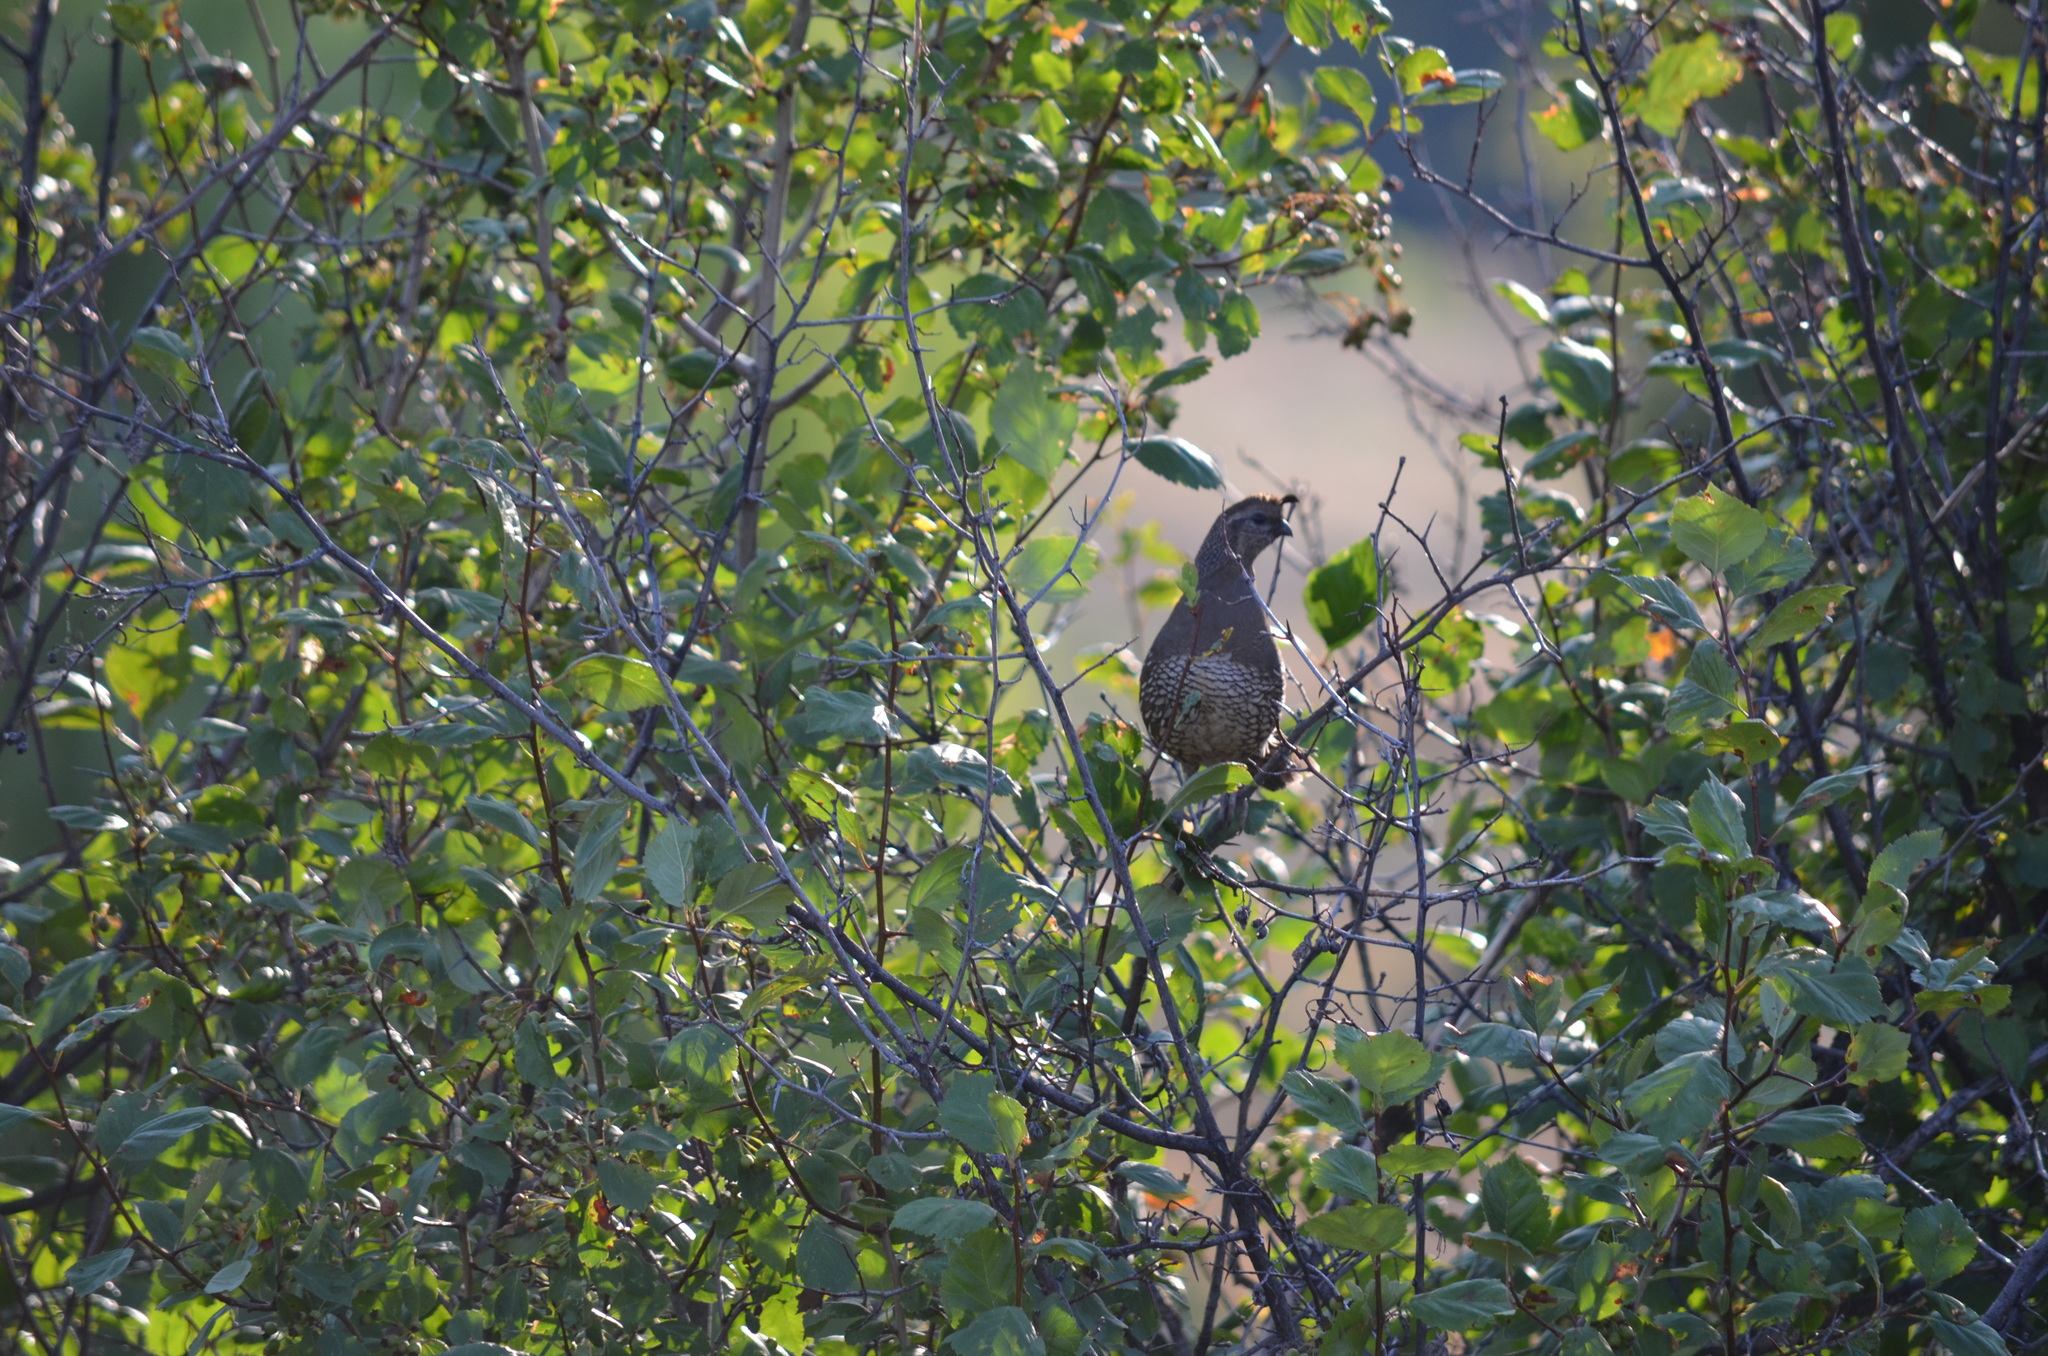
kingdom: Animalia
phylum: Chordata
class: Aves
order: Galliformes
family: Odontophoridae
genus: Callipepla
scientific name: Callipepla californica
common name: California quail
